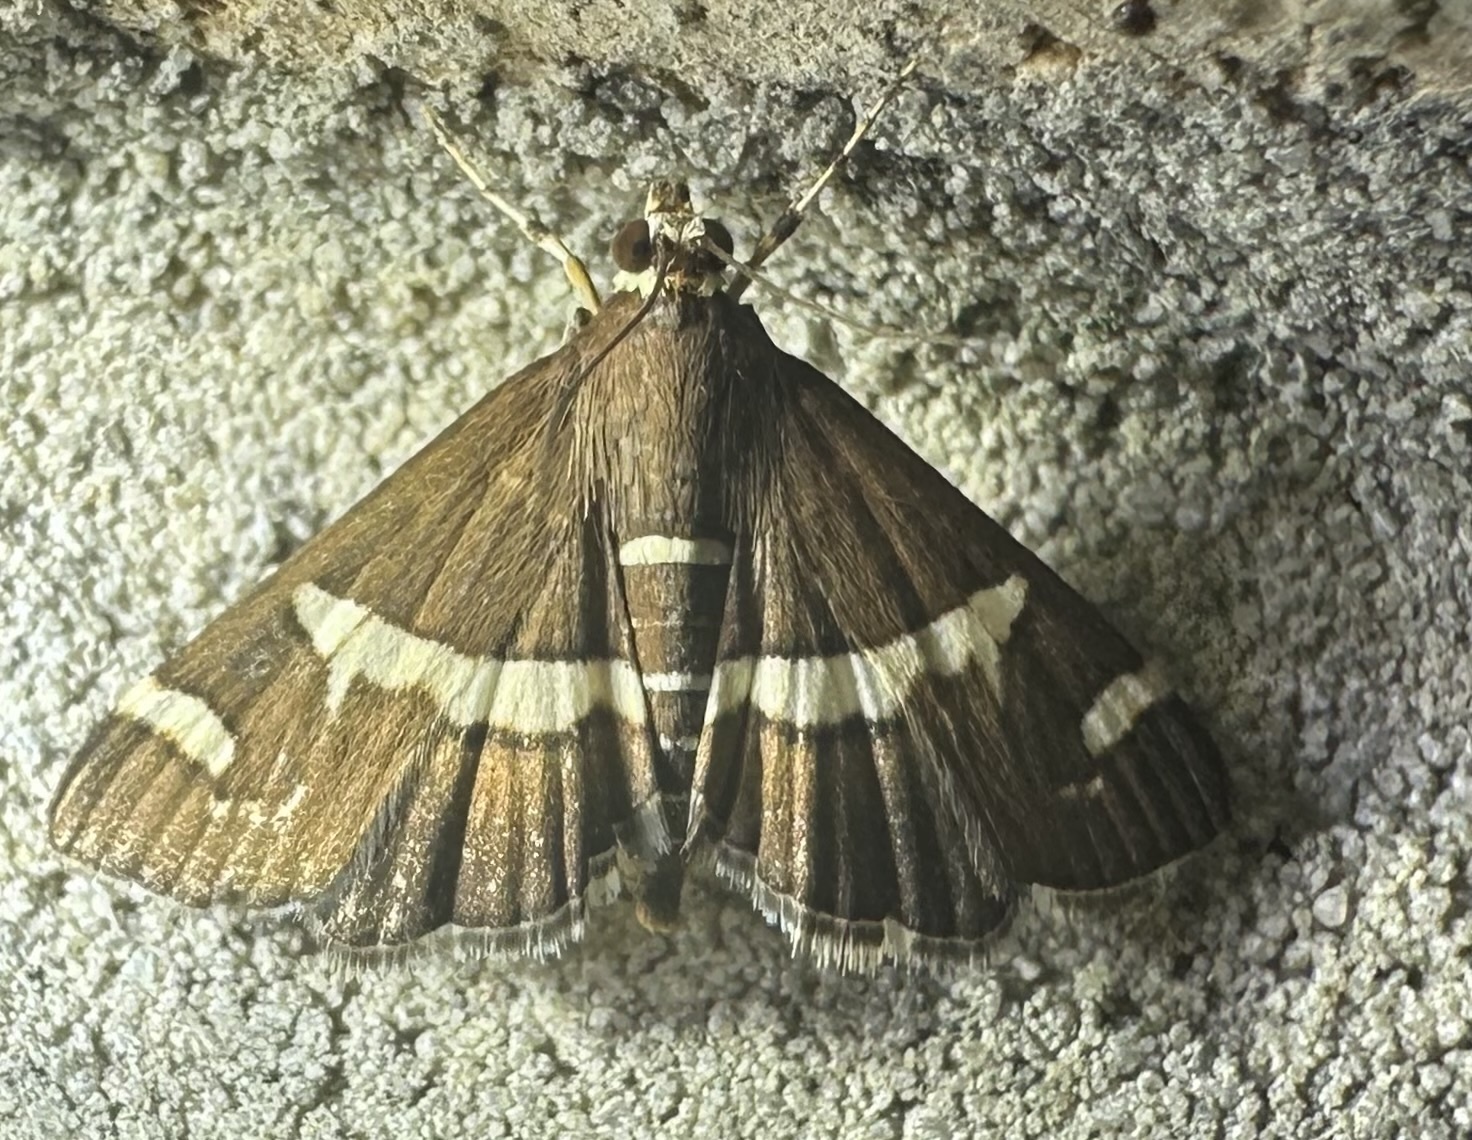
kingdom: Animalia
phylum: Arthropoda
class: Insecta
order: Lepidoptera
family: Crambidae
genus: Spoladea
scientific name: Spoladea recurvalis
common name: Beet webworm moth
